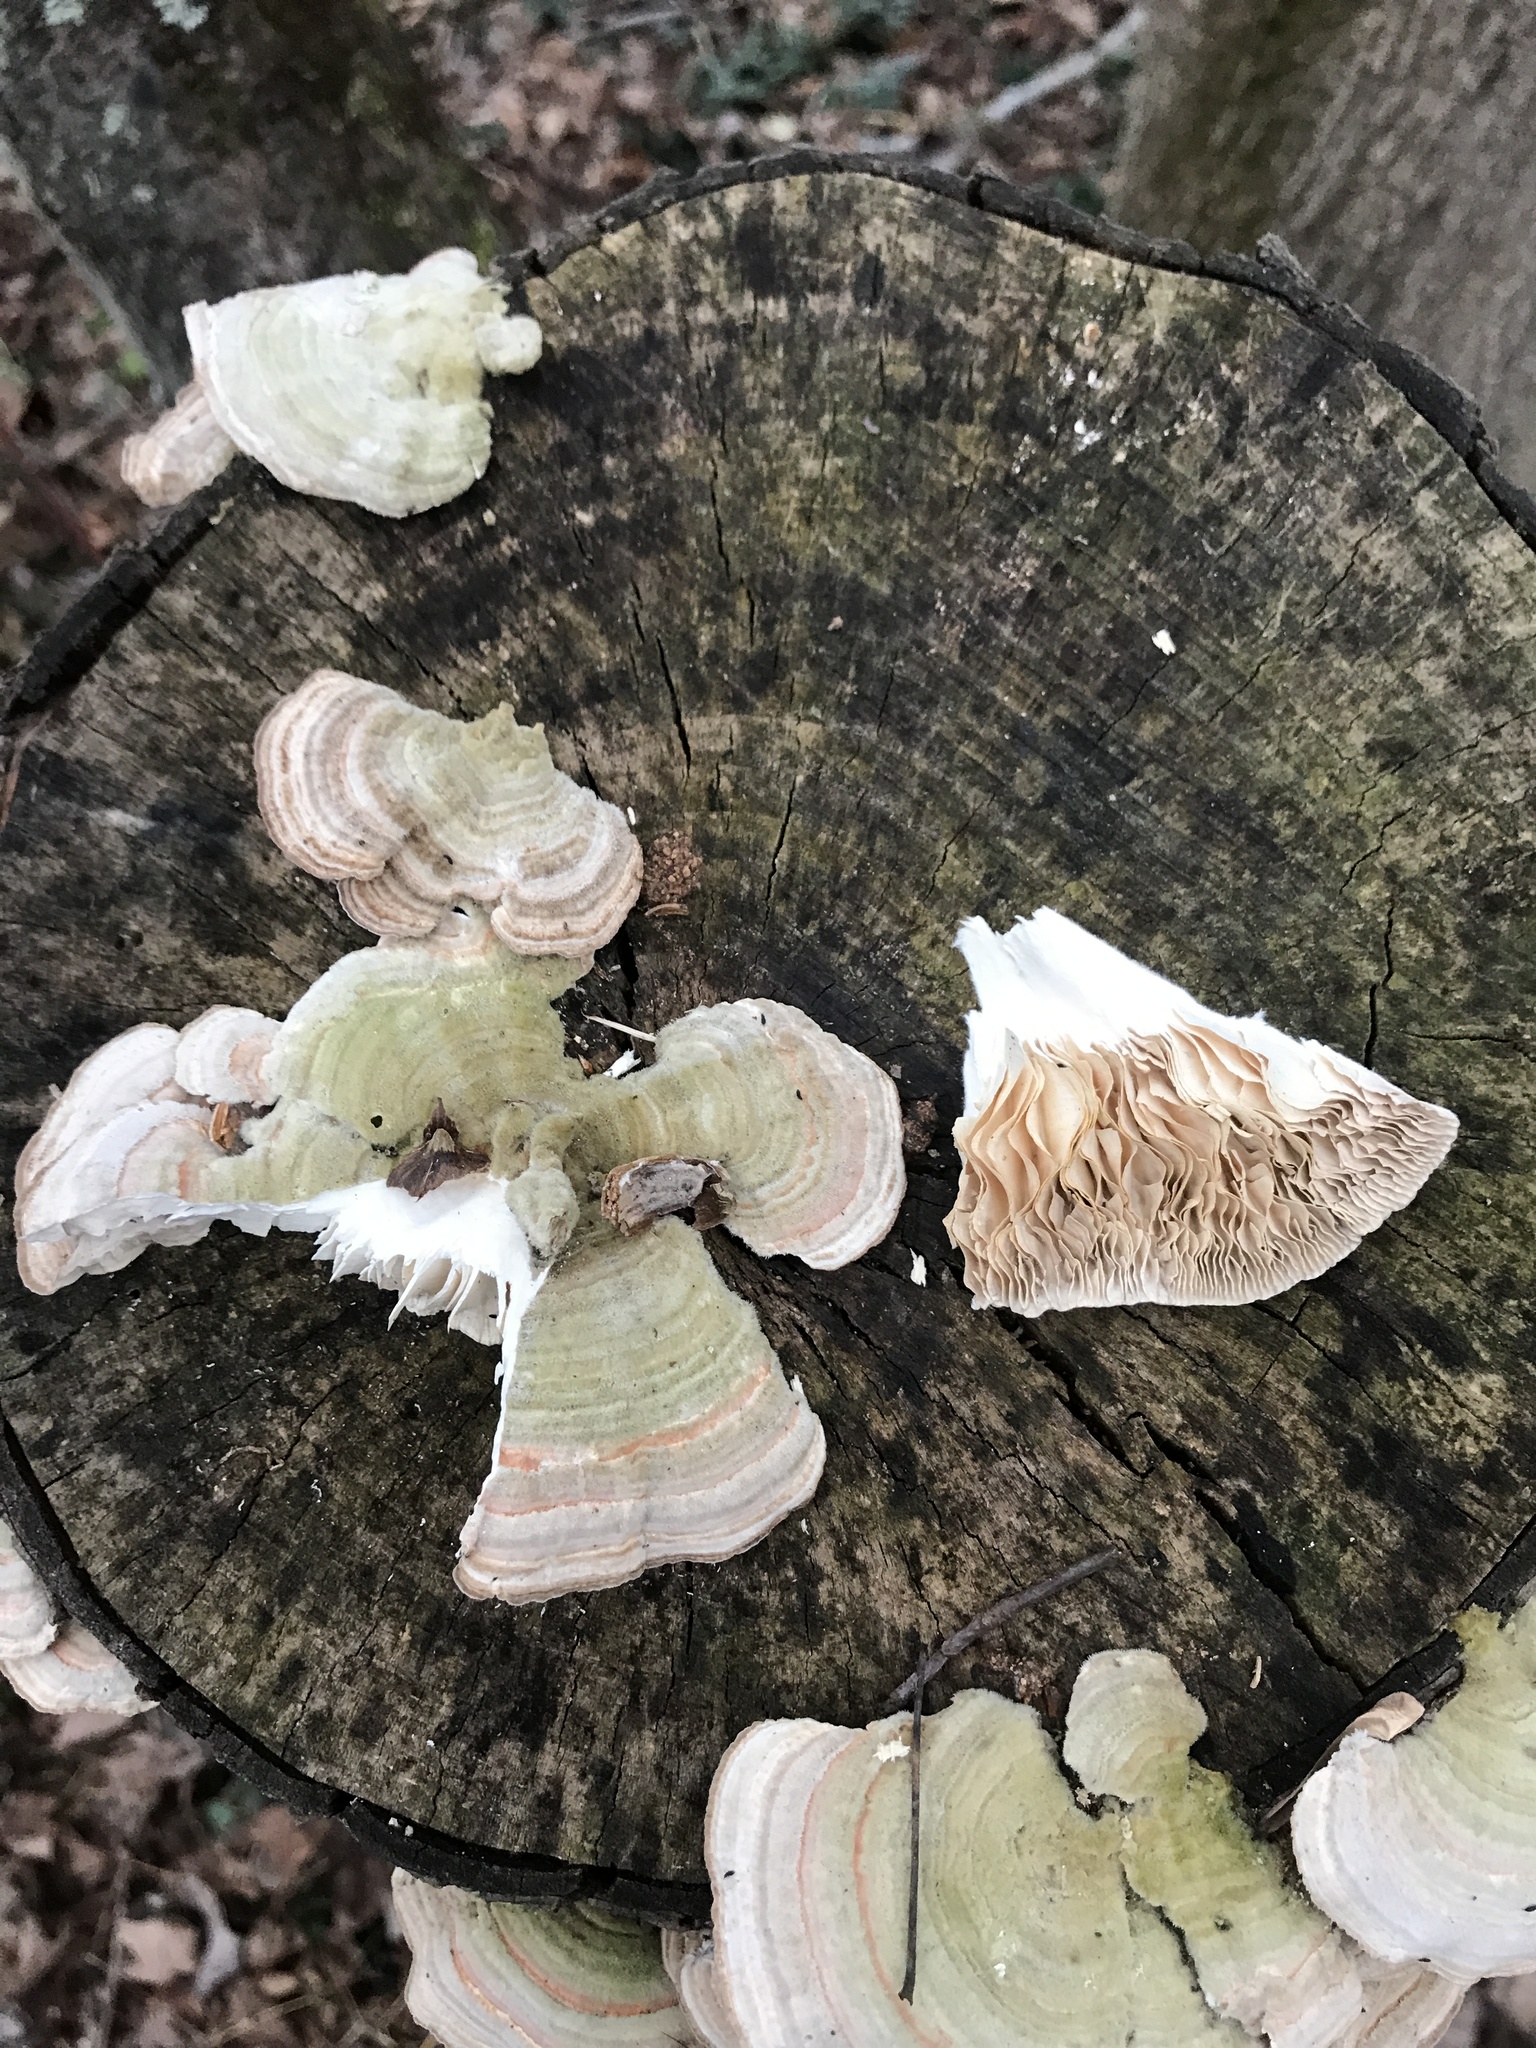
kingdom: Fungi
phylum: Basidiomycota
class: Agaricomycetes
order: Polyporales
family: Polyporaceae
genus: Lenzites
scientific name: Lenzites betulinus
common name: Birch mazegill
